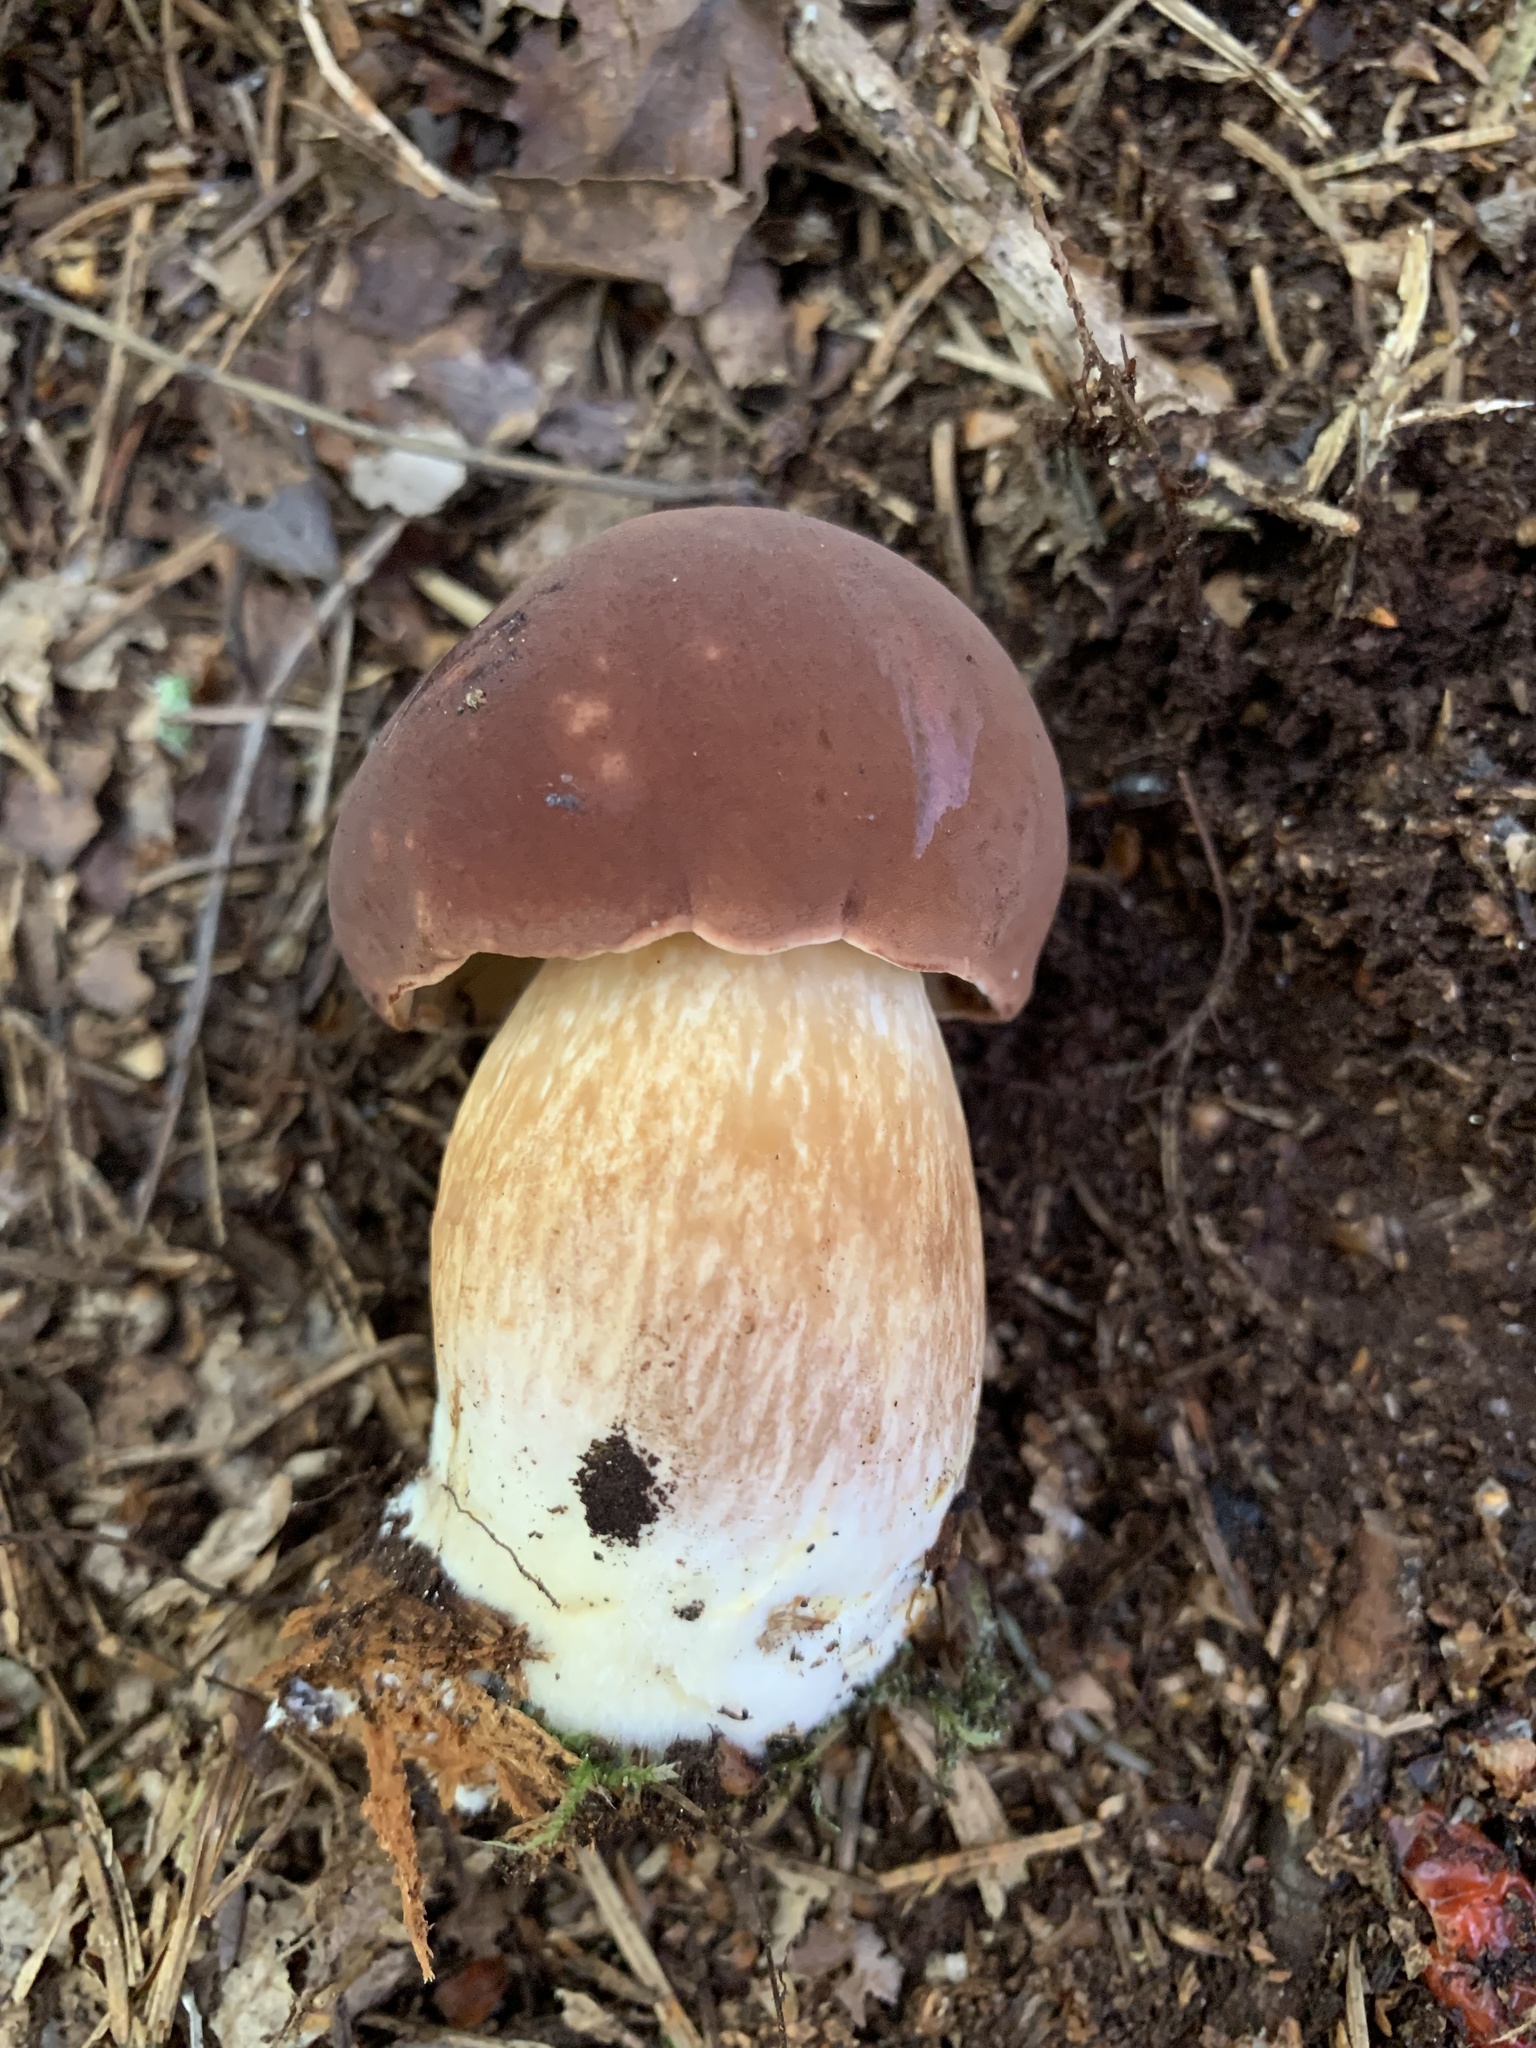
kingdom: Fungi
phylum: Basidiomycota
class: Agaricomycetes
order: Boletales
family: Boletaceae
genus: Imleria
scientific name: Imleria badia
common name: Bay bolete
